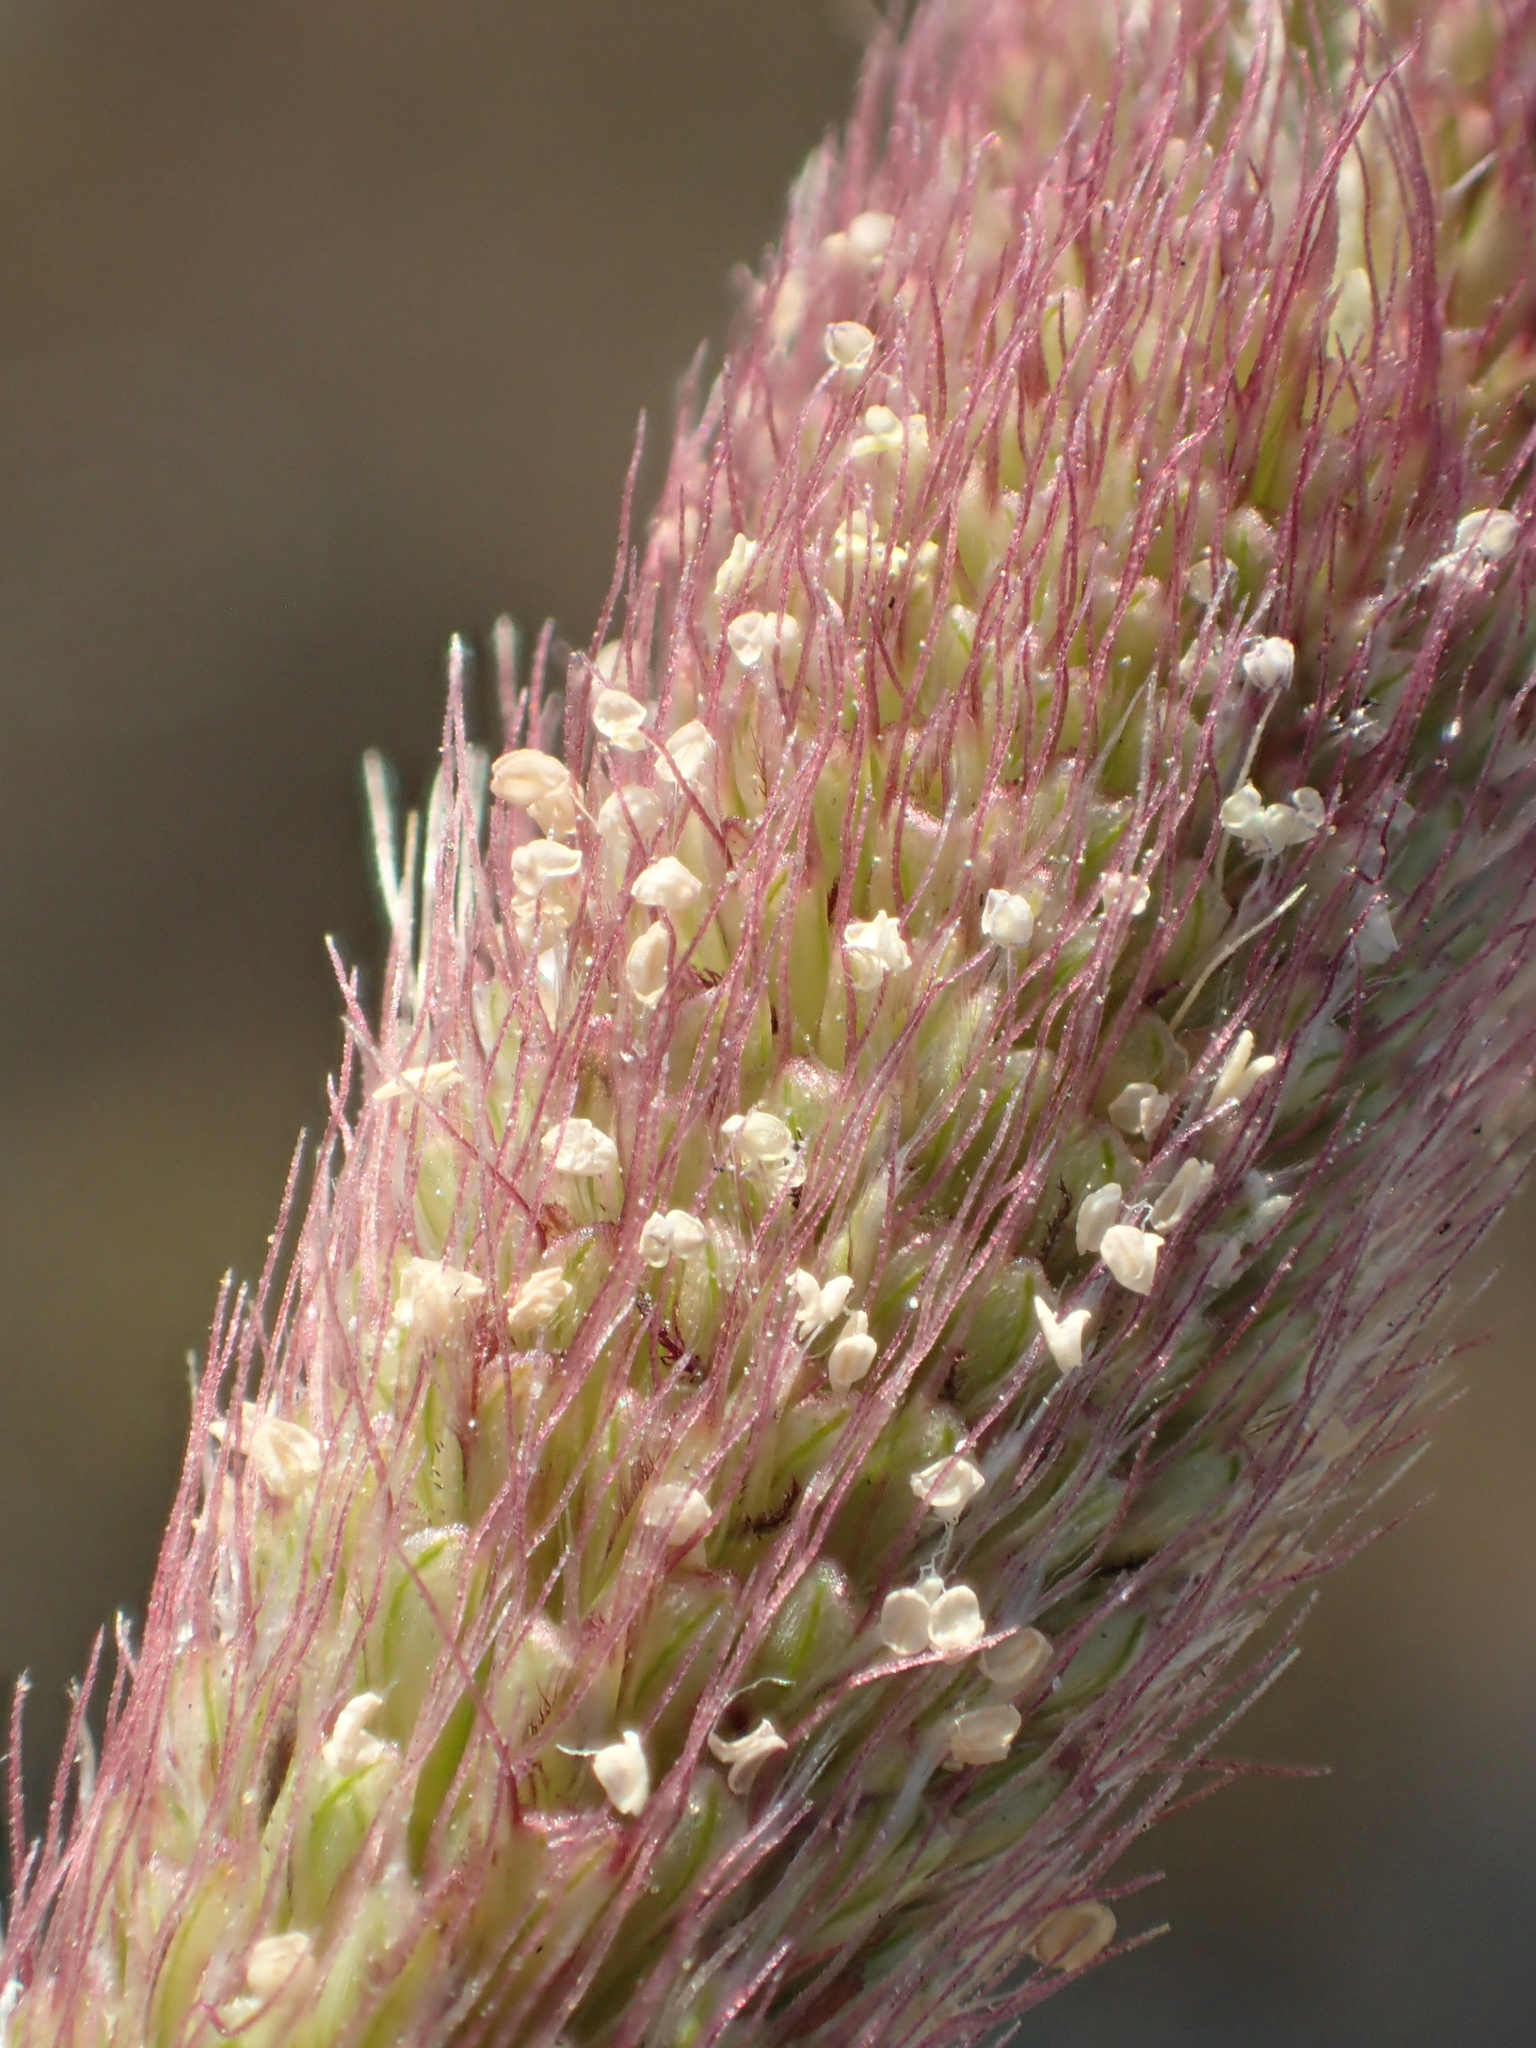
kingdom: Plantae
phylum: Tracheophyta
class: Liliopsida
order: Poales
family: Poaceae
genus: Chloris
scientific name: Chloris formosana
